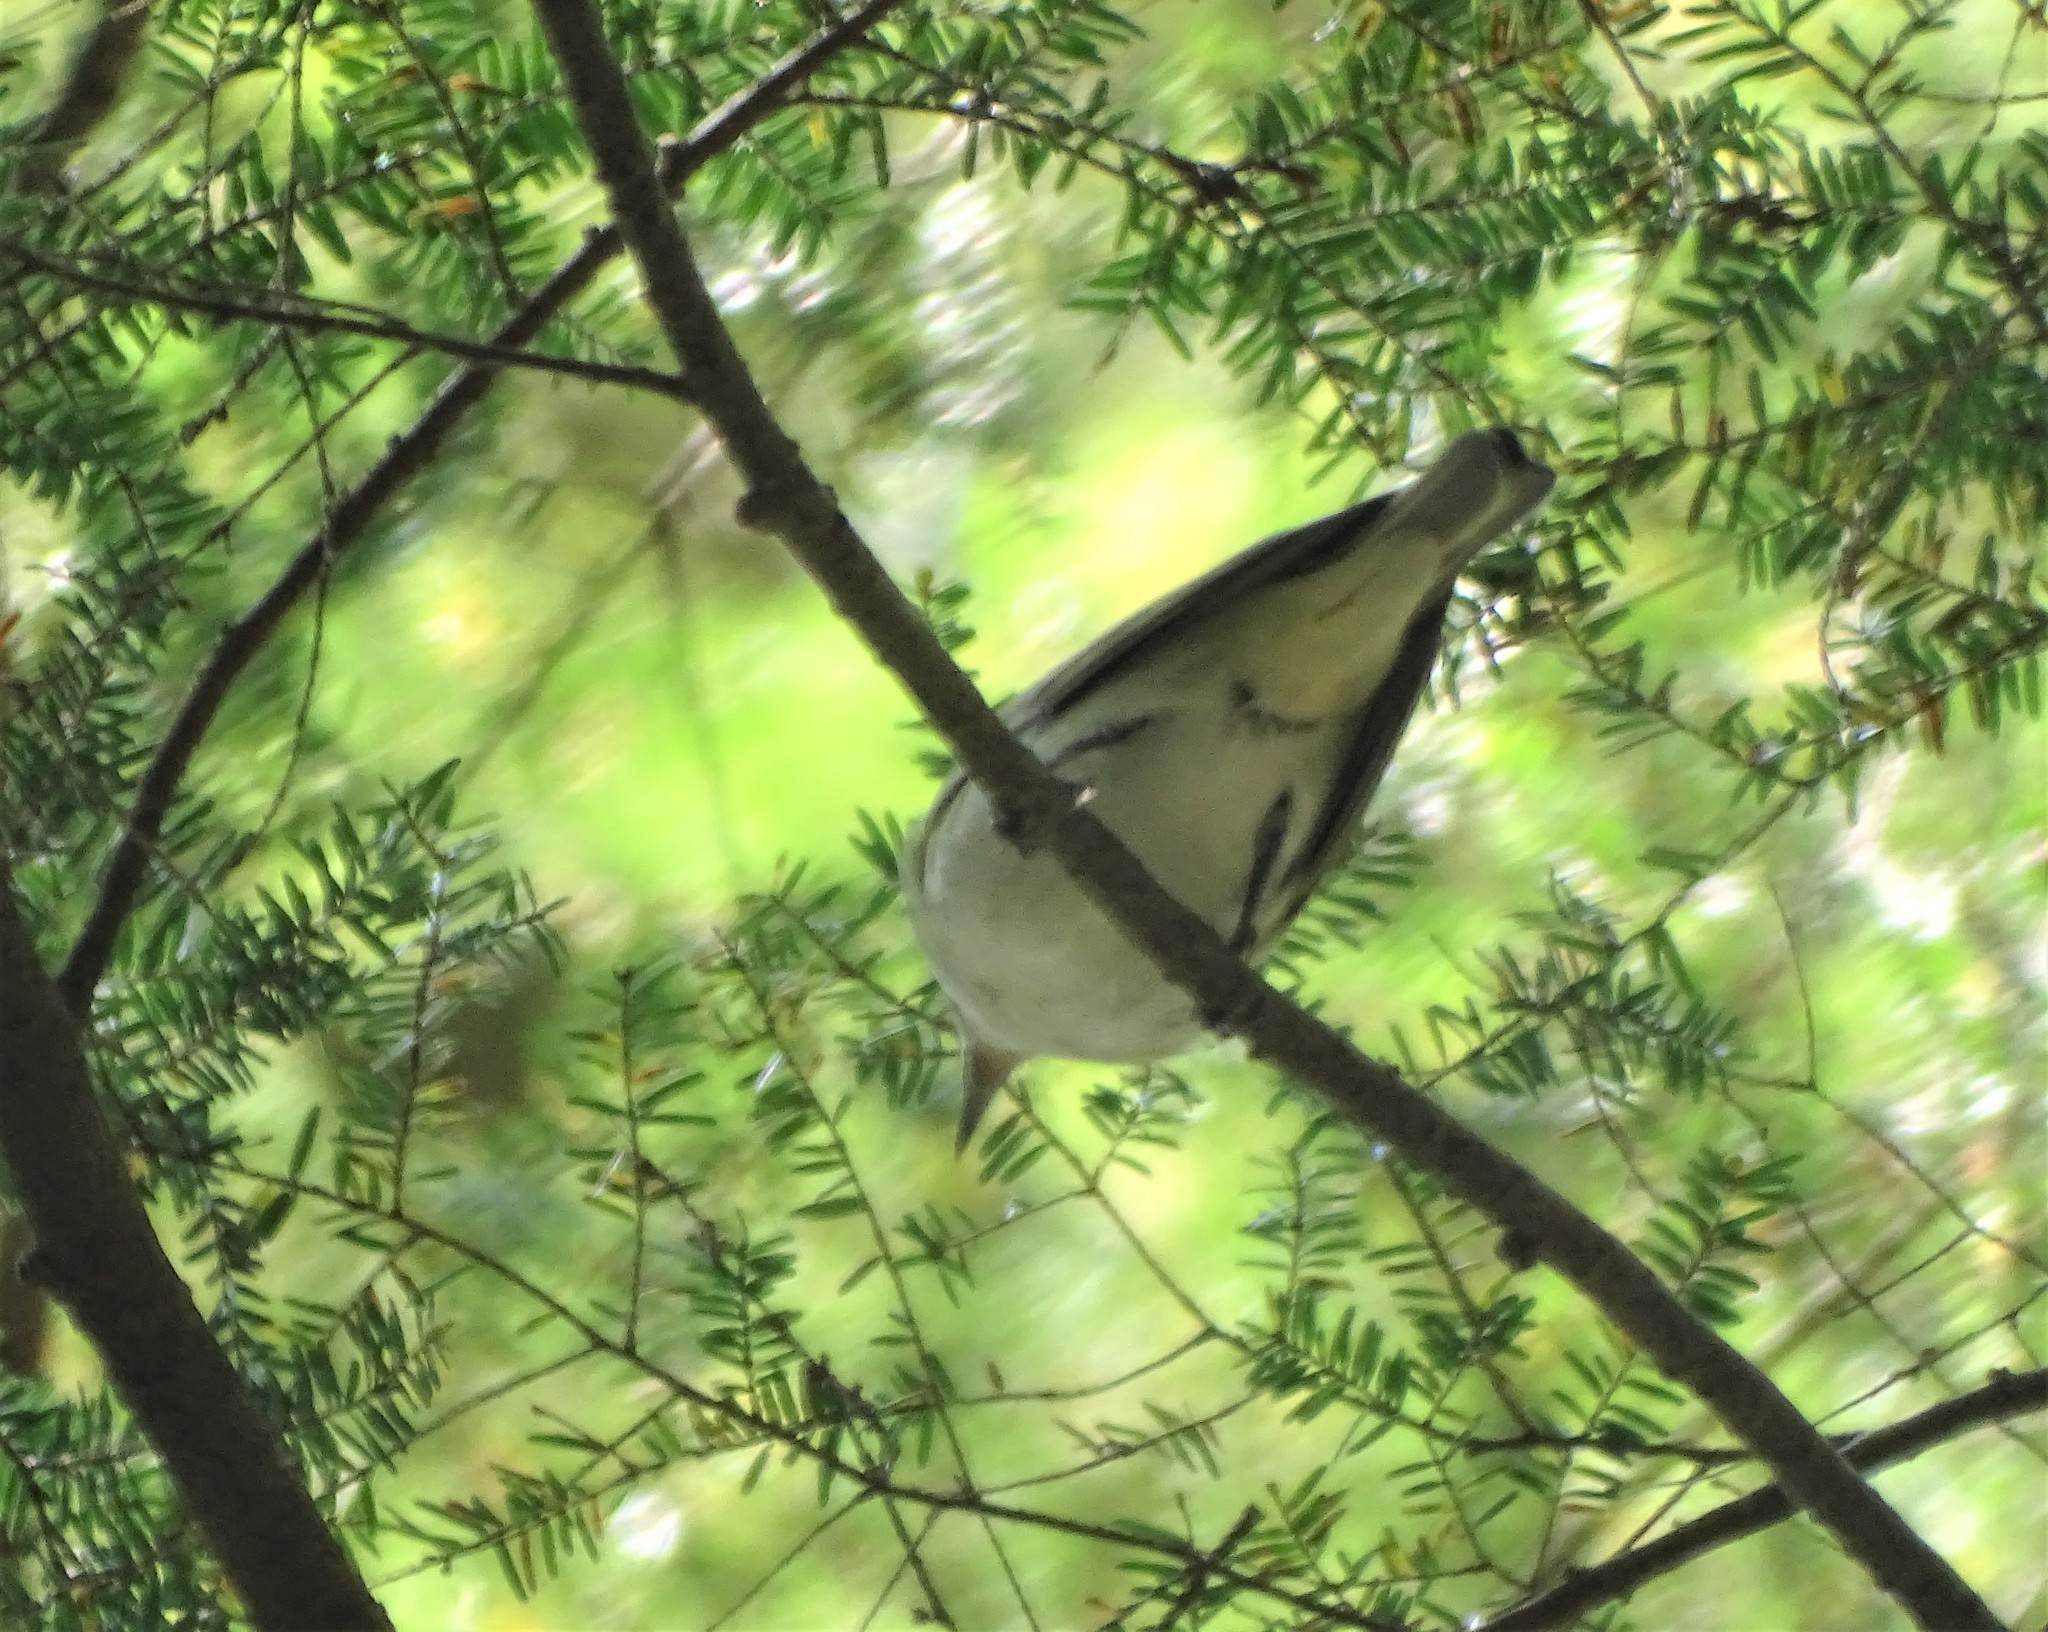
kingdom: Animalia
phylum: Chordata
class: Aves
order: Passeriformes
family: Vireonidae
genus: Vireo
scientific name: Vireo olivaceus
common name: Red-eyed vireo
